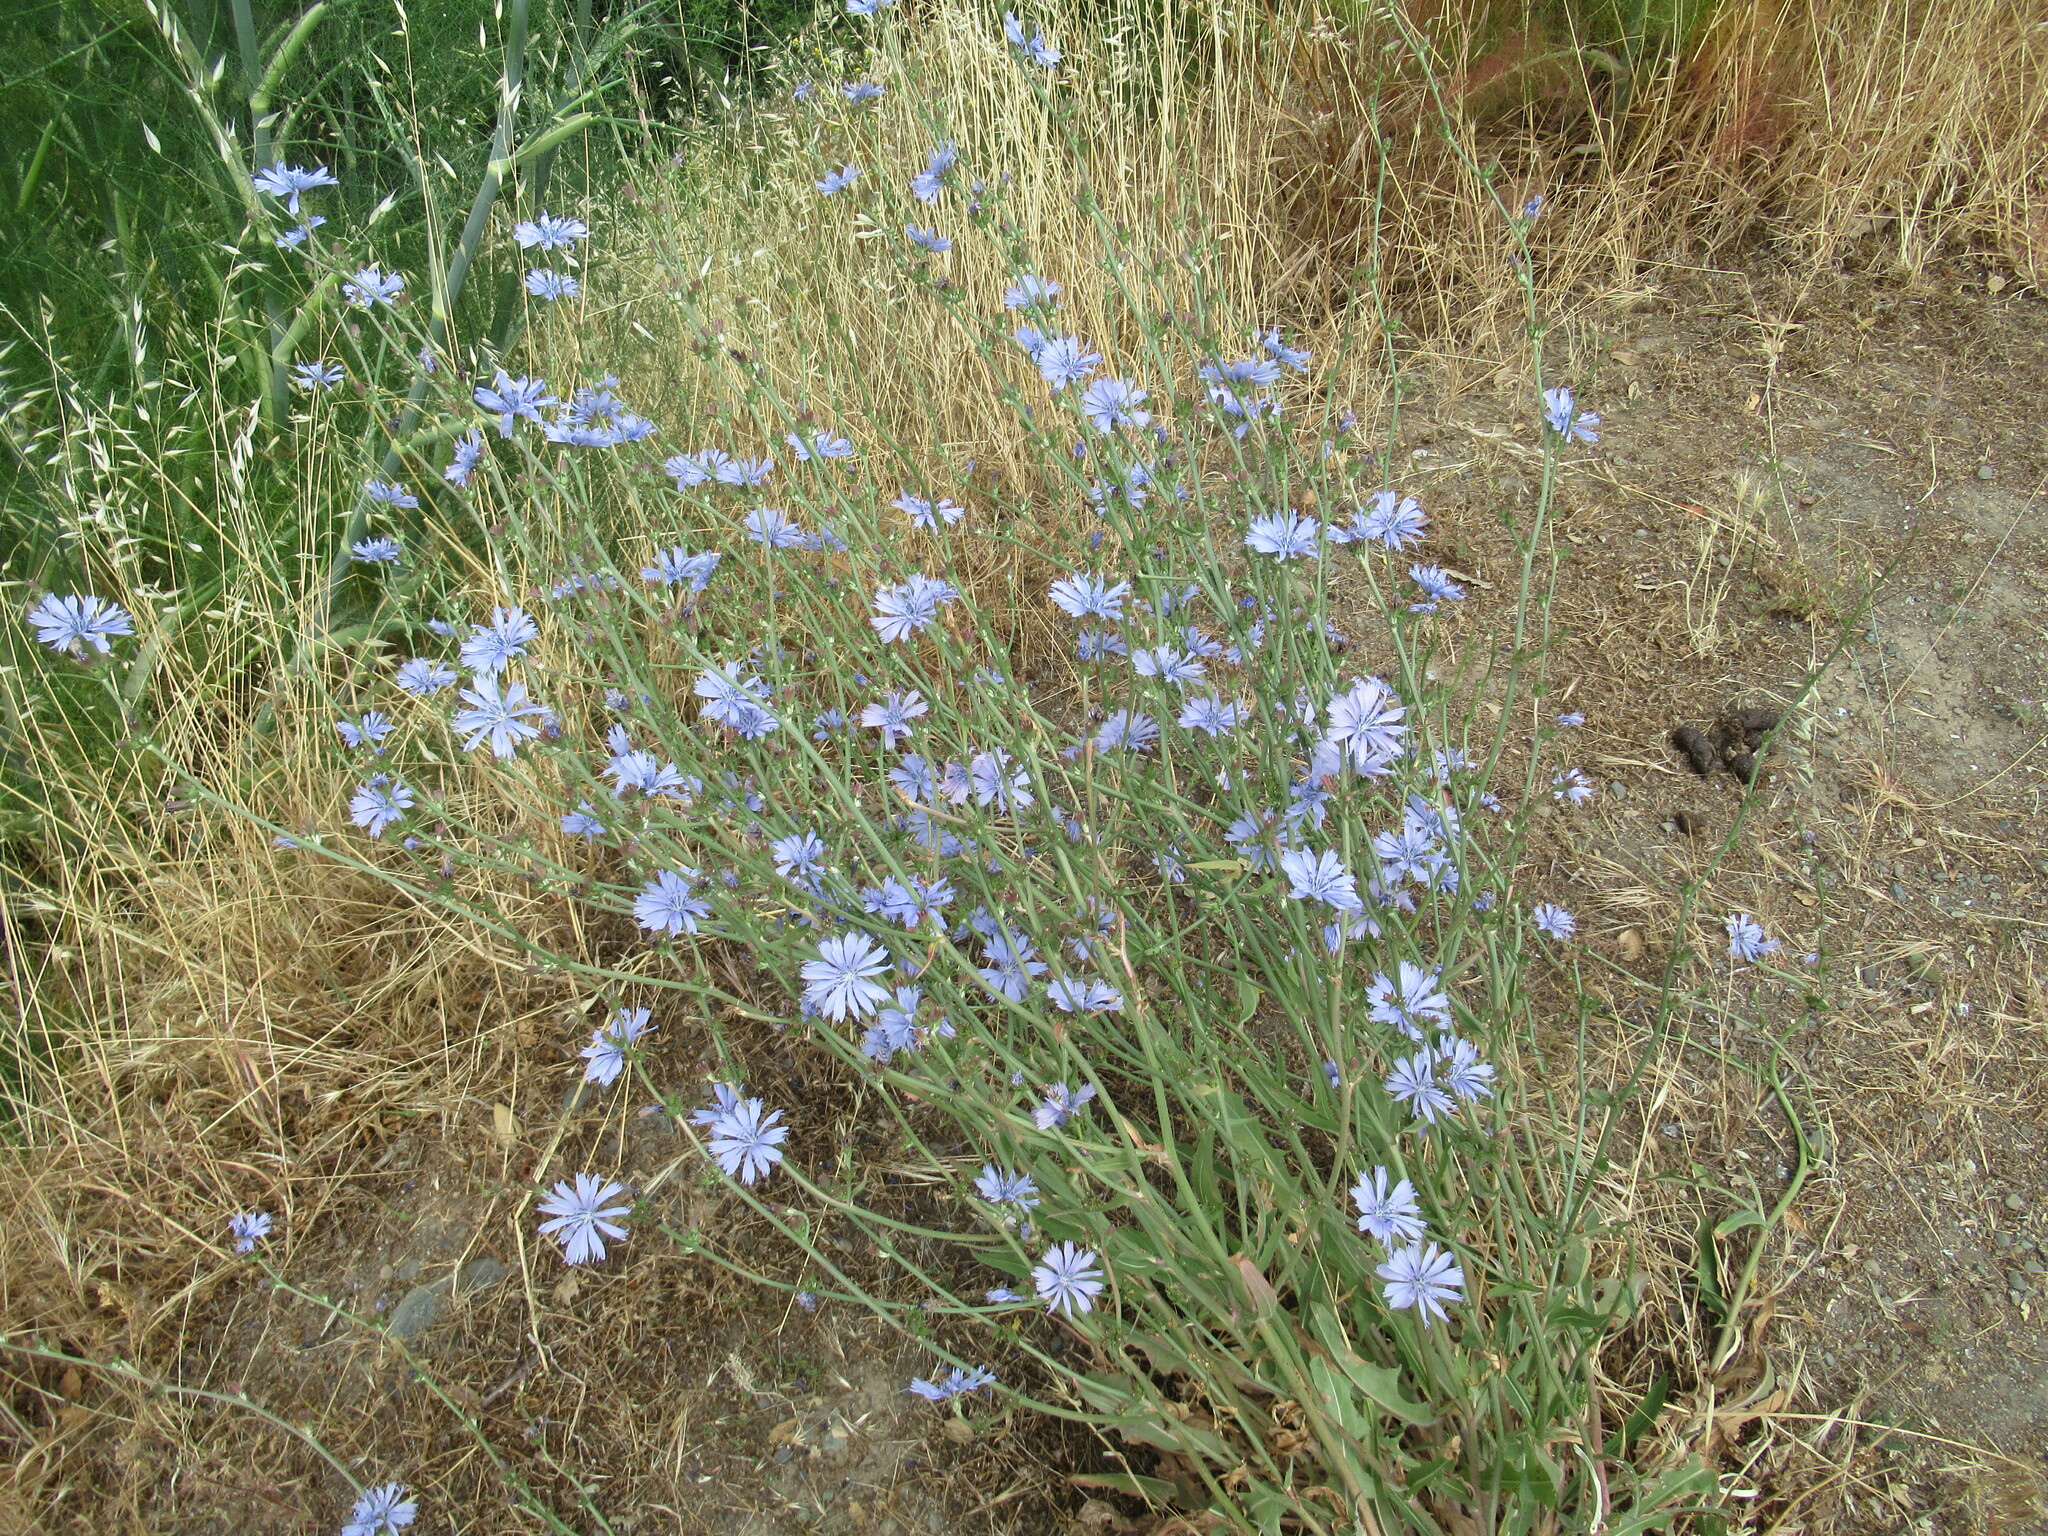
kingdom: Plantae
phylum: Tracheophyta
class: Magnoliopsida
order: Asterales
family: Asteraceae
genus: Cichorium
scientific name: Cichorium intybus
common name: Chicory
